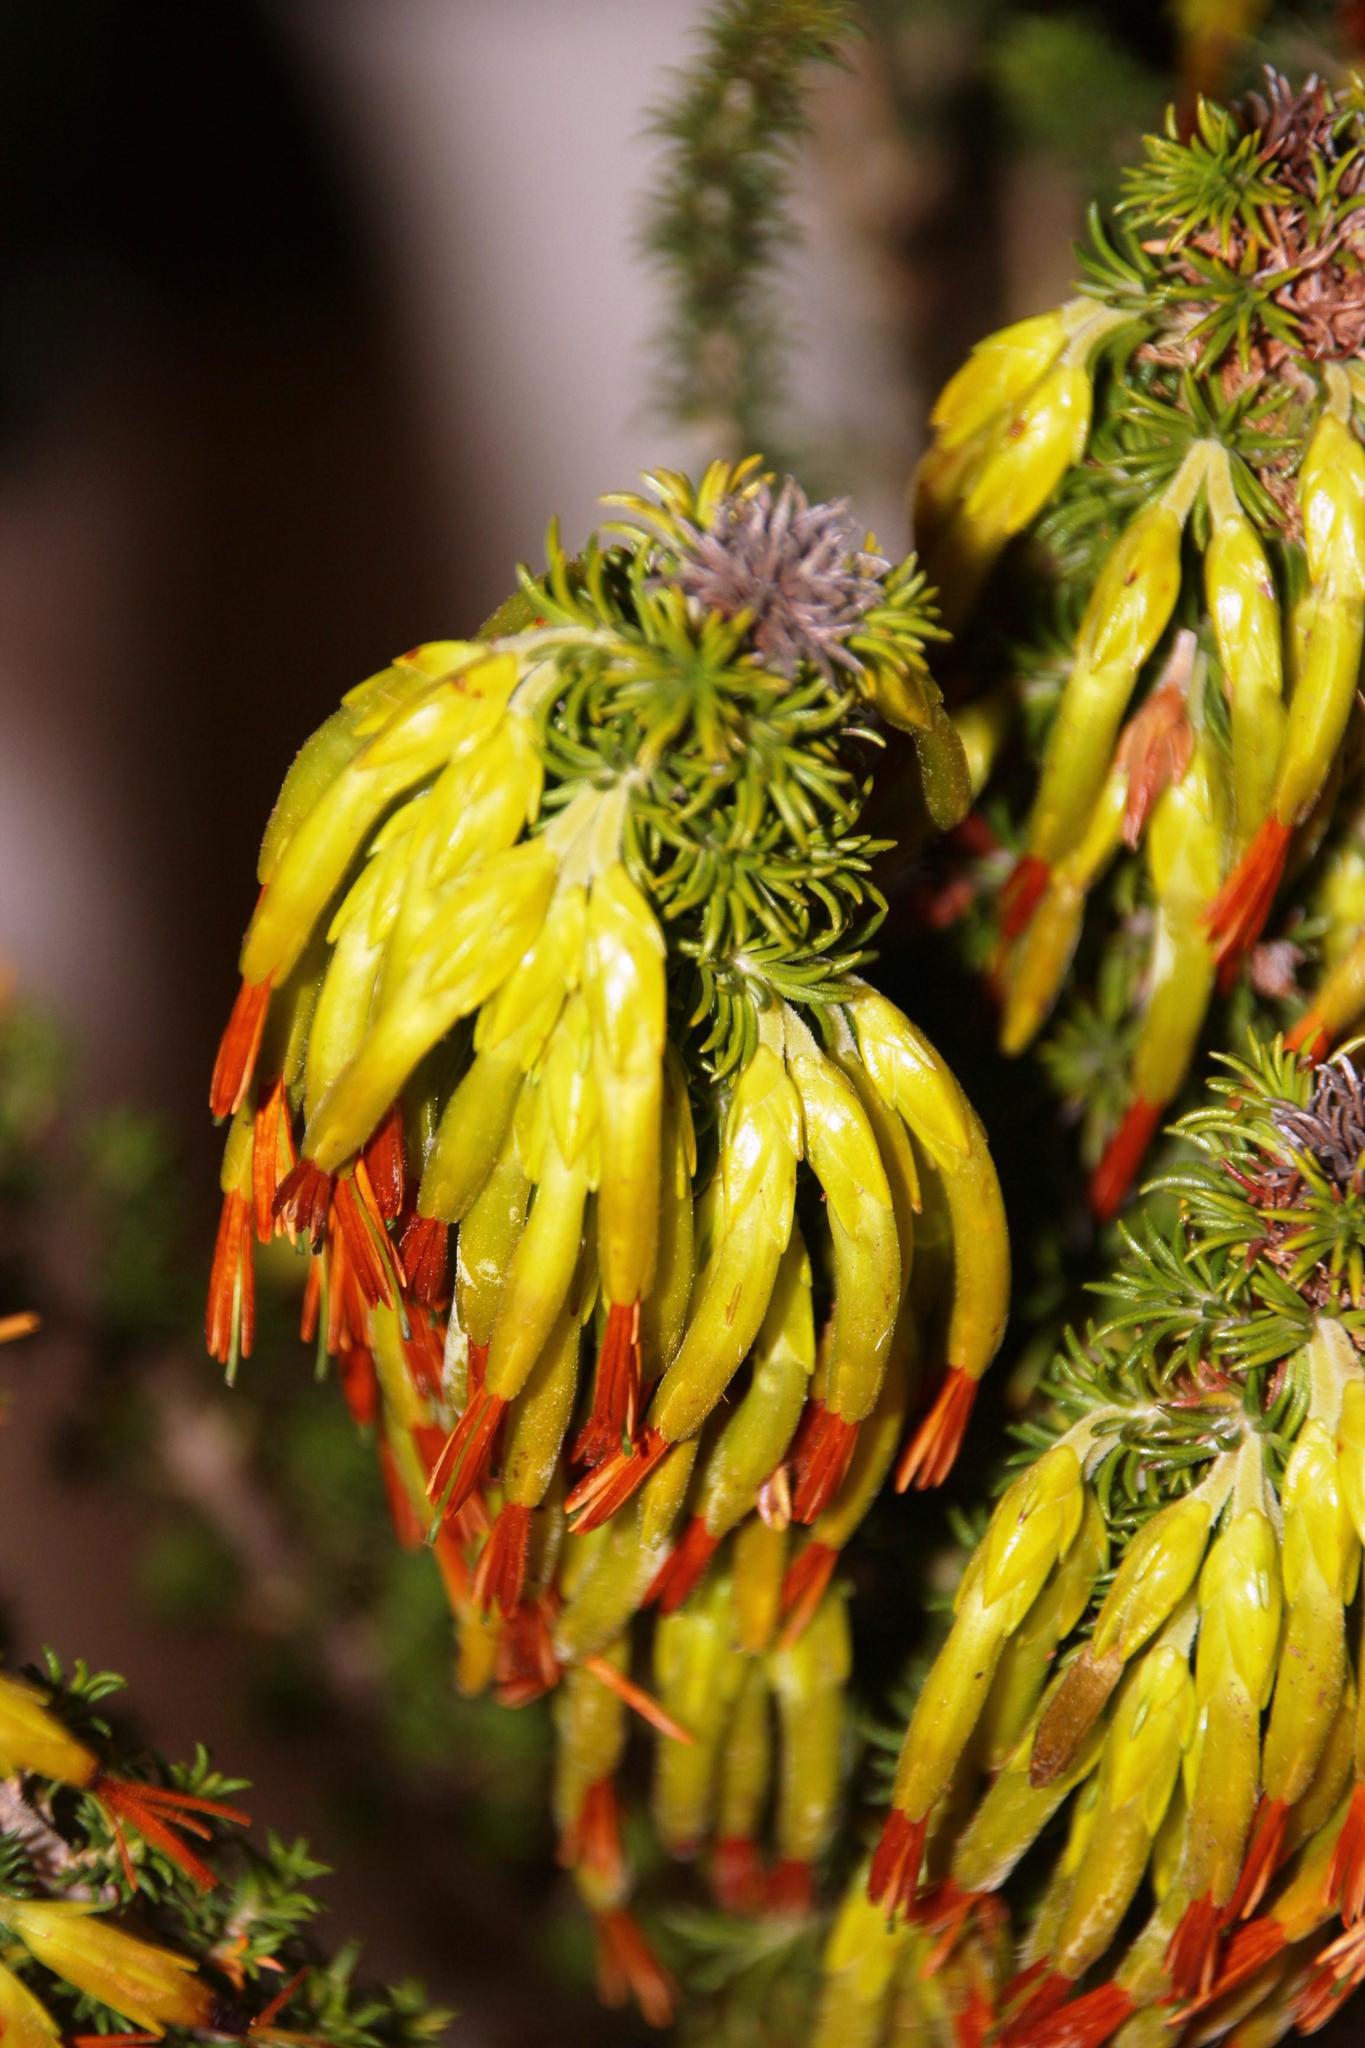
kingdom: Plantae
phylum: Tracheophyta
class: Magnoliopsida
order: Ericales
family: Ericaceae
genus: Erica
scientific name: Erica coccinea
